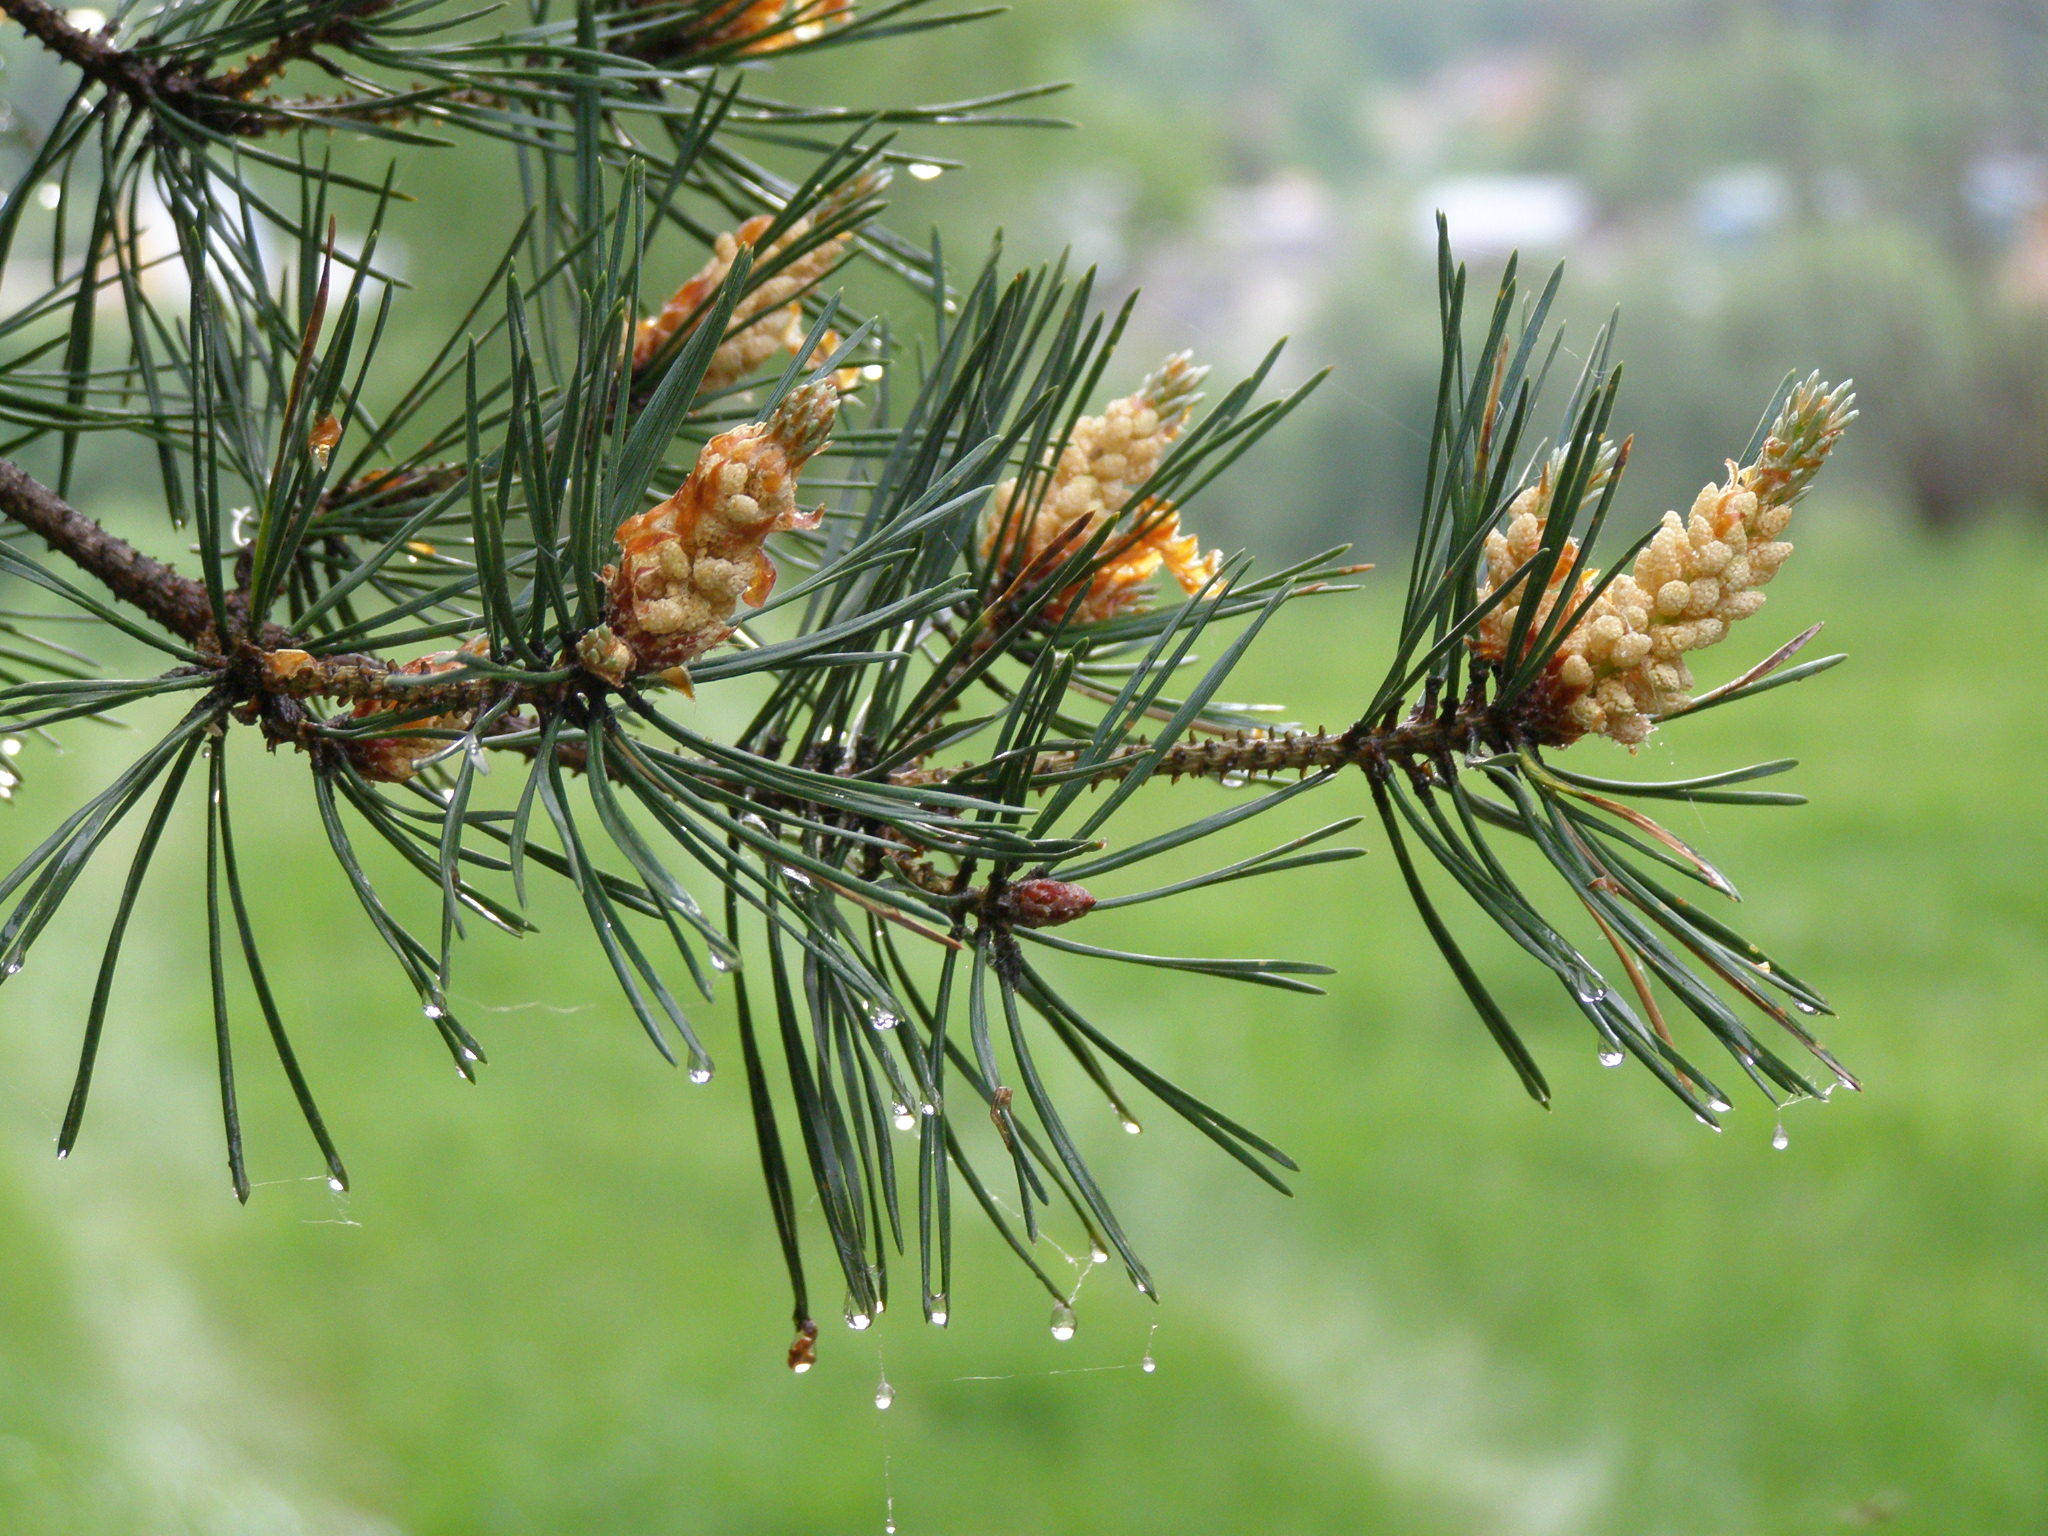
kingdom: Plantae
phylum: Tracheophyta
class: Pinopsida
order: Pinales
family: Pinaceae
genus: Pinus
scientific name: Pinus sylvestris
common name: Scots pine
